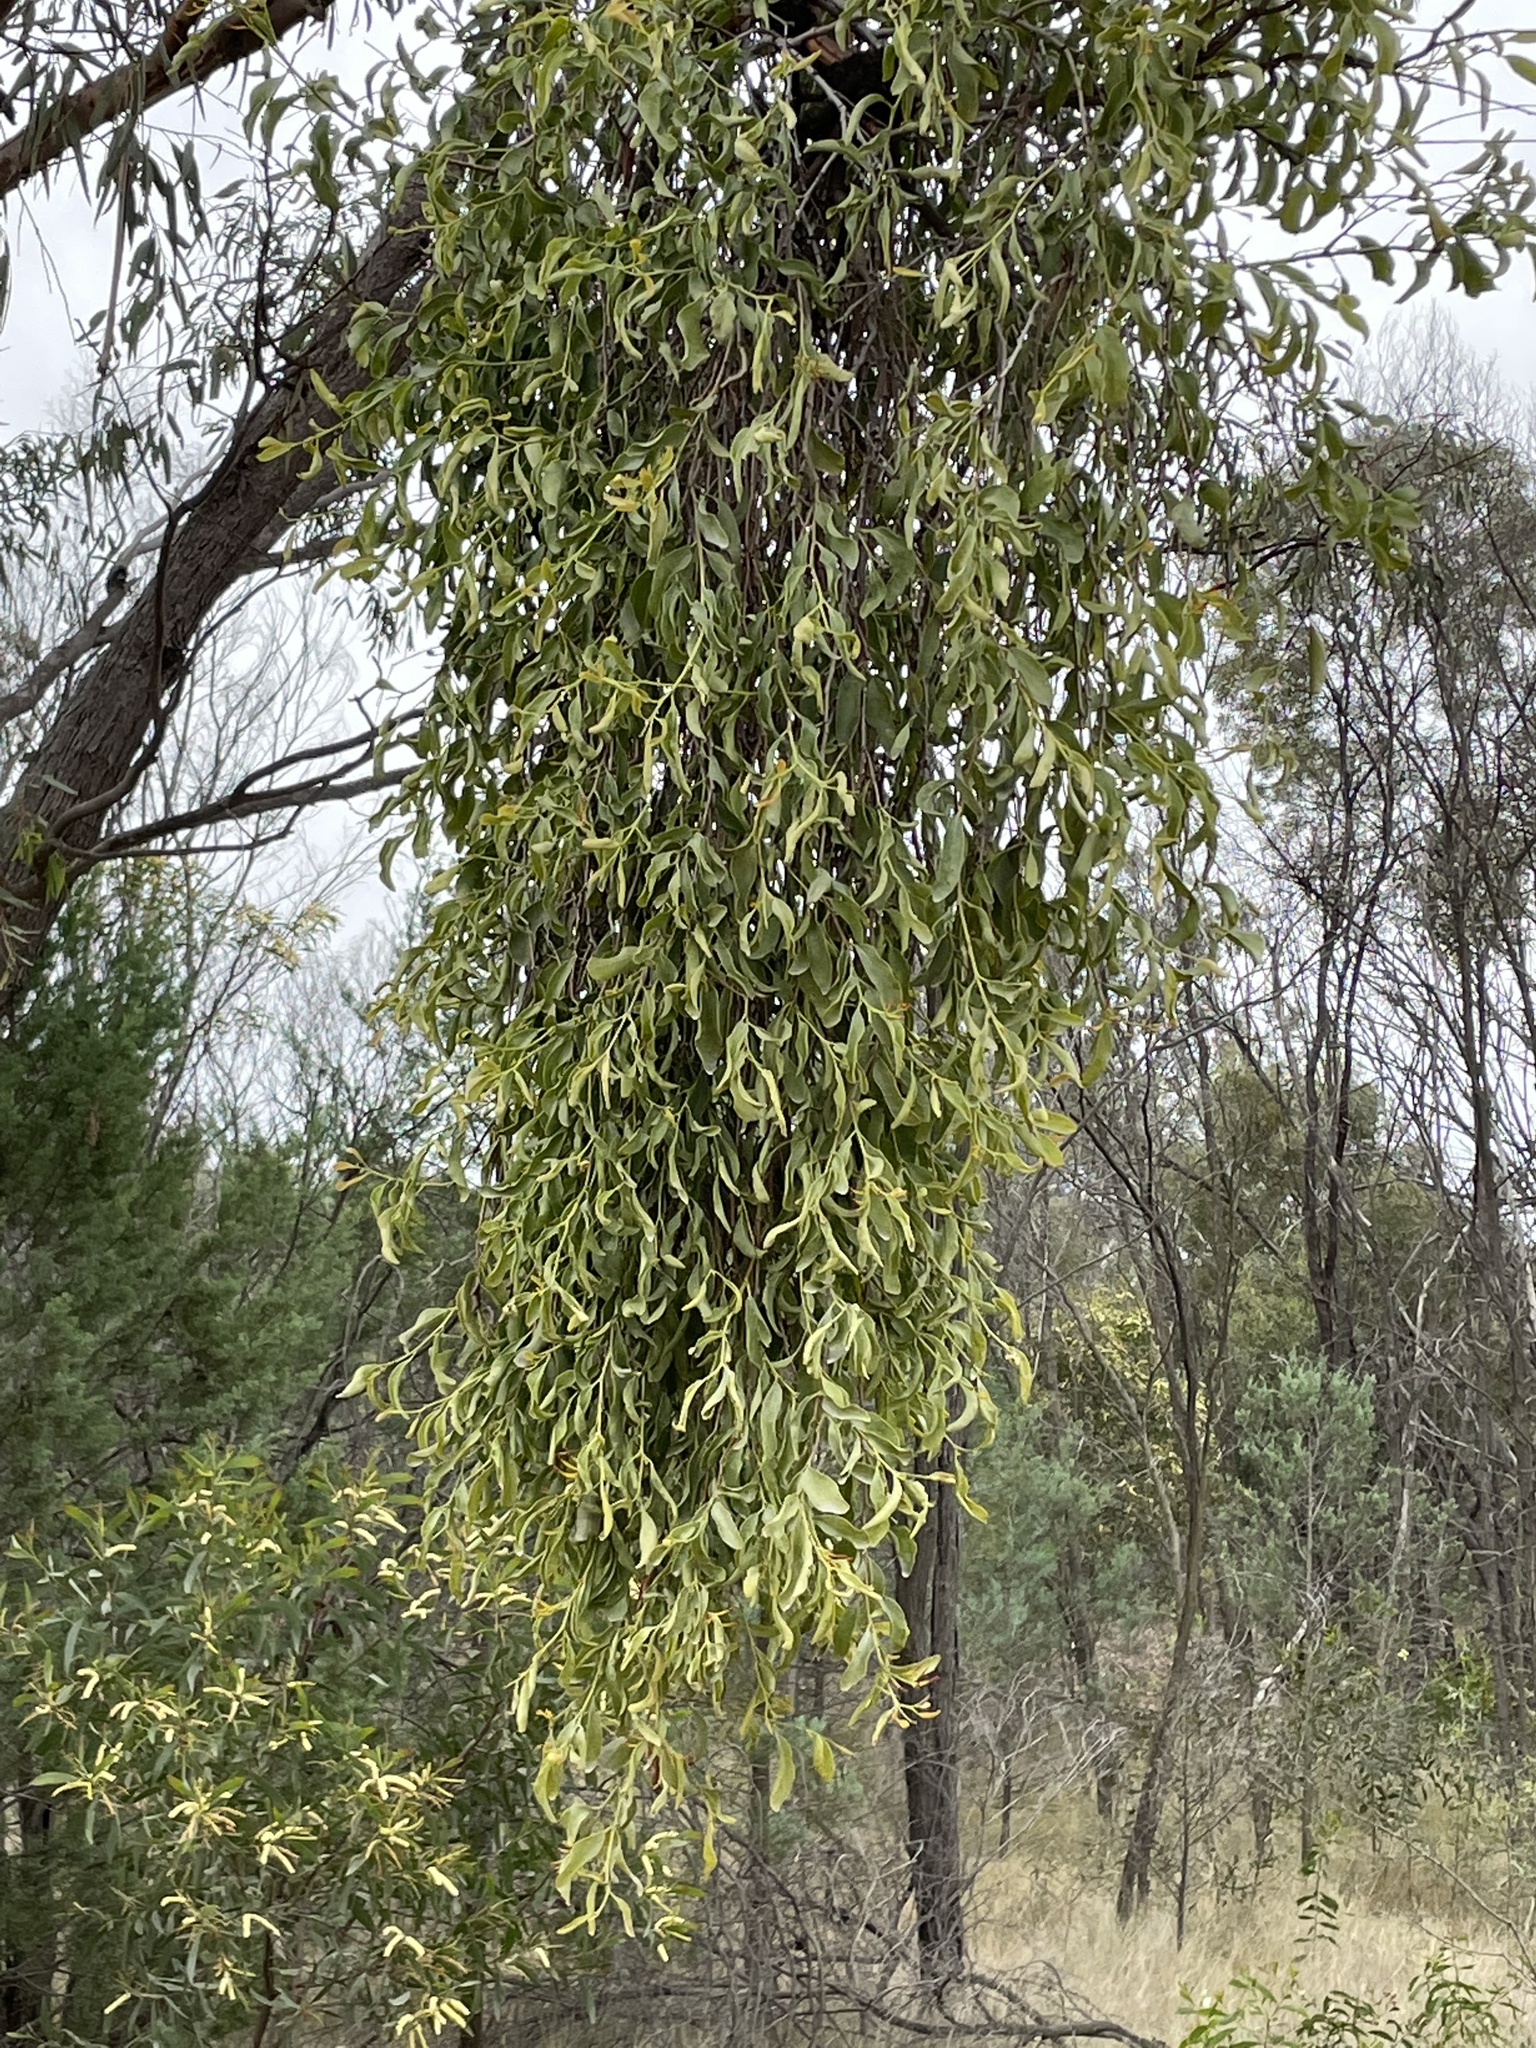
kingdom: Plantae
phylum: Tracheophyta
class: Magnoliopsida
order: Santalales
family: Loranthaceae
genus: Dendrophthoe
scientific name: Dendrophthoe glabrescens
